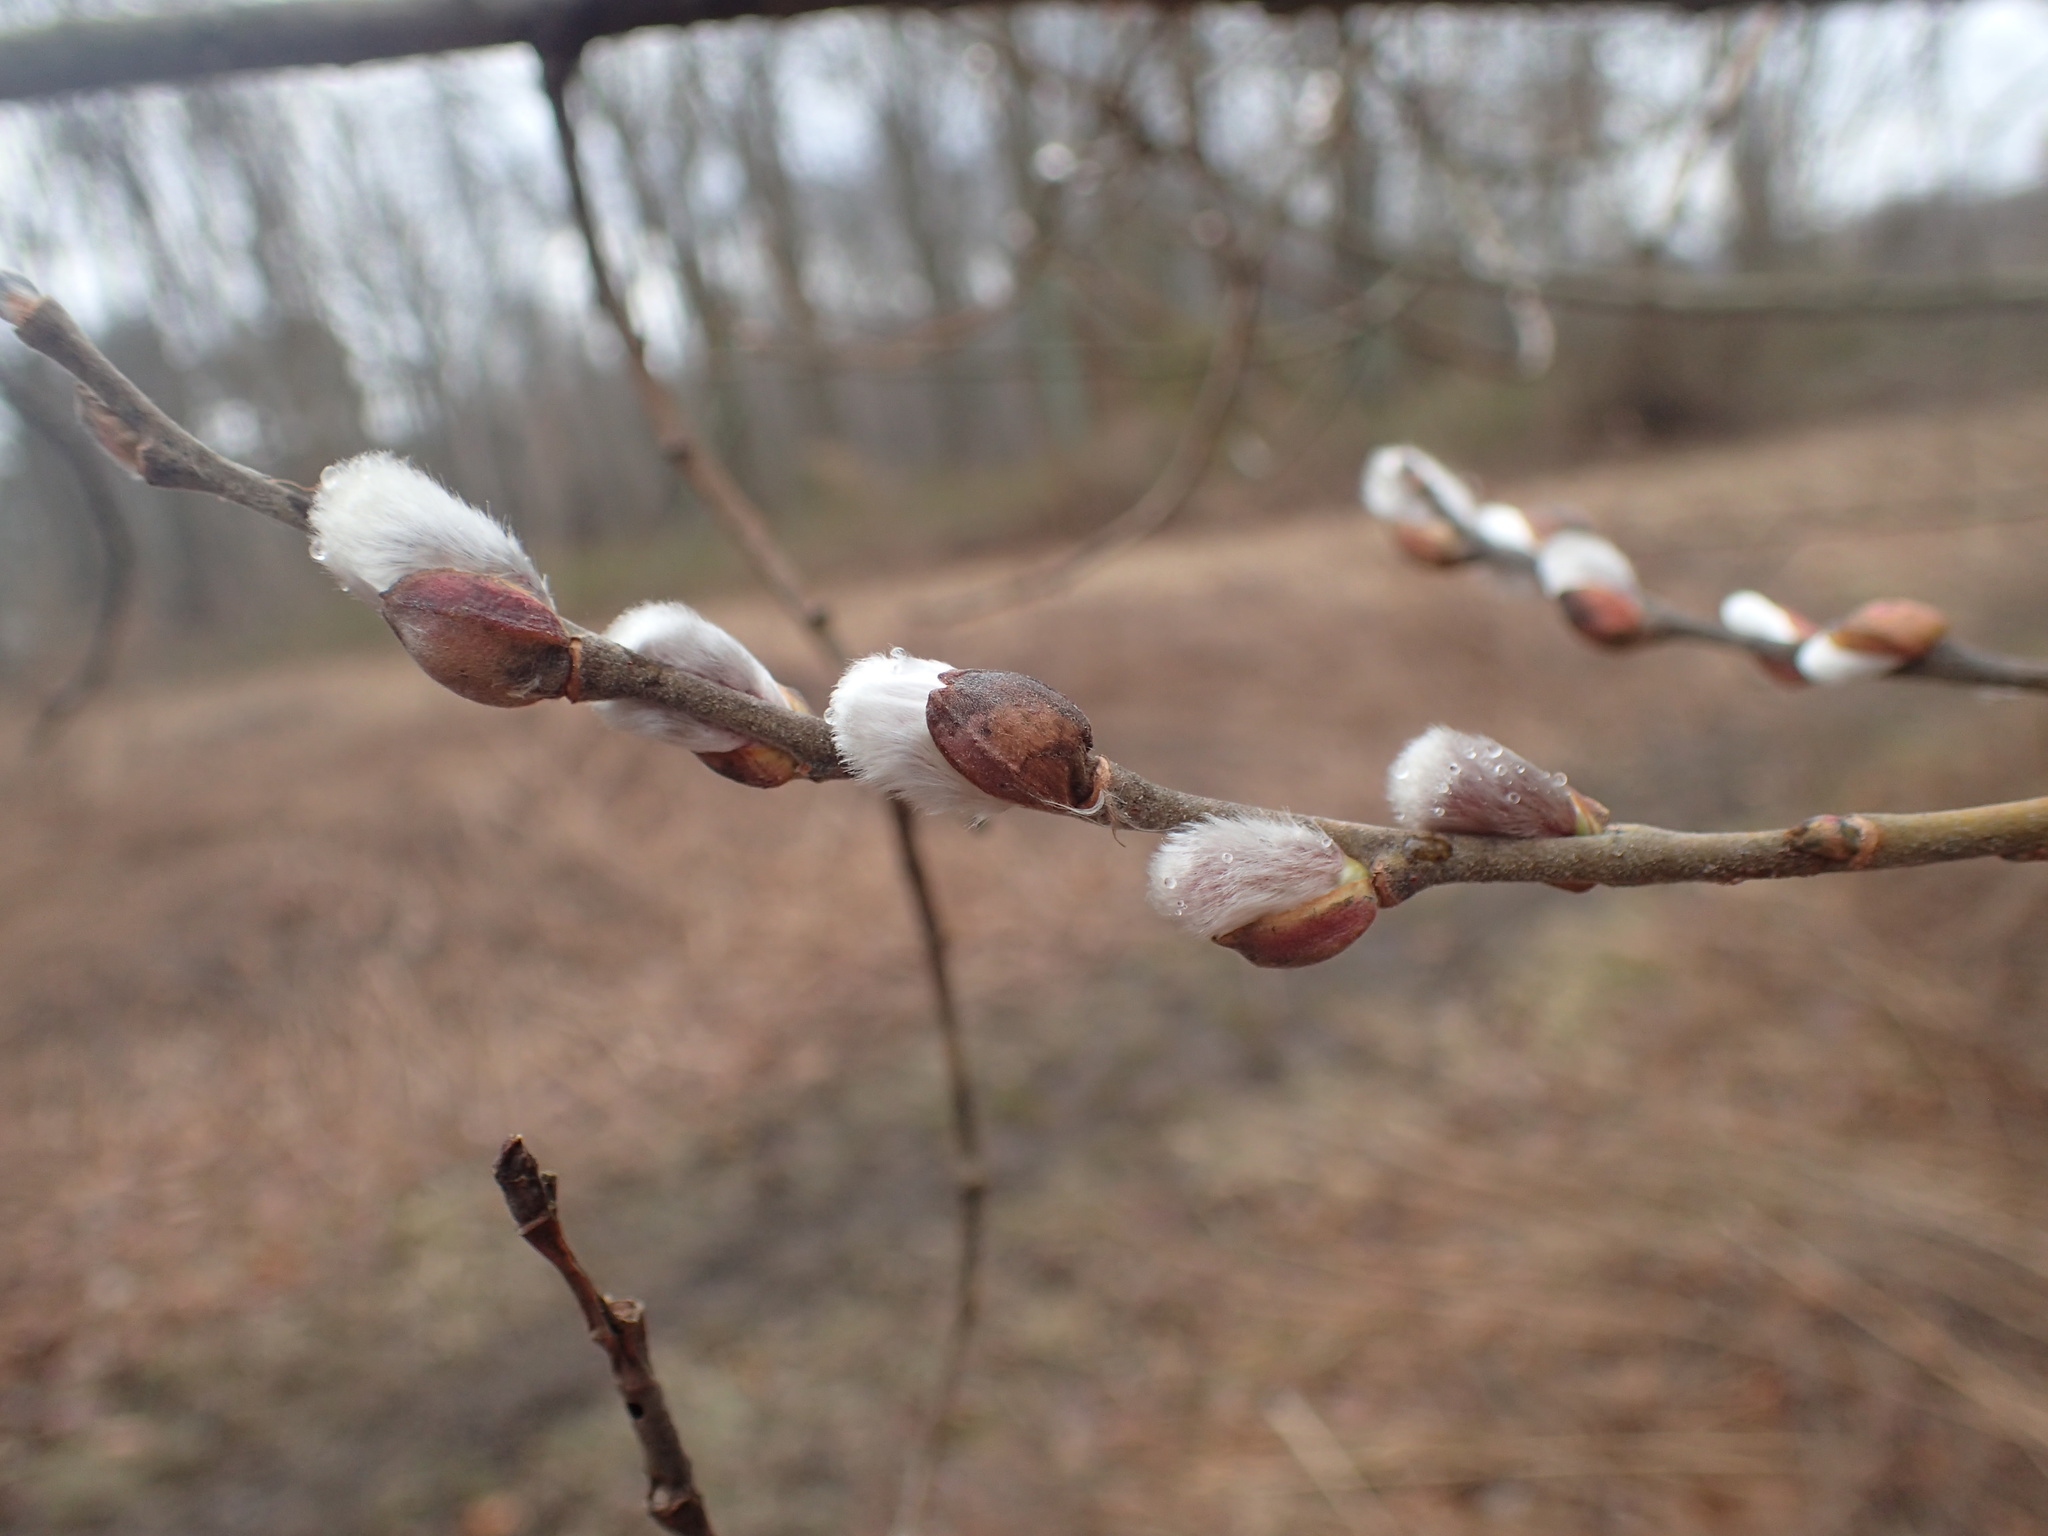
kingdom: Plantae
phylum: Tracheophyta
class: Magnoliopsida
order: Malpighiales
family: Salicaceae
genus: Salix
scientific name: Salix discolor
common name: Glaucous willow
